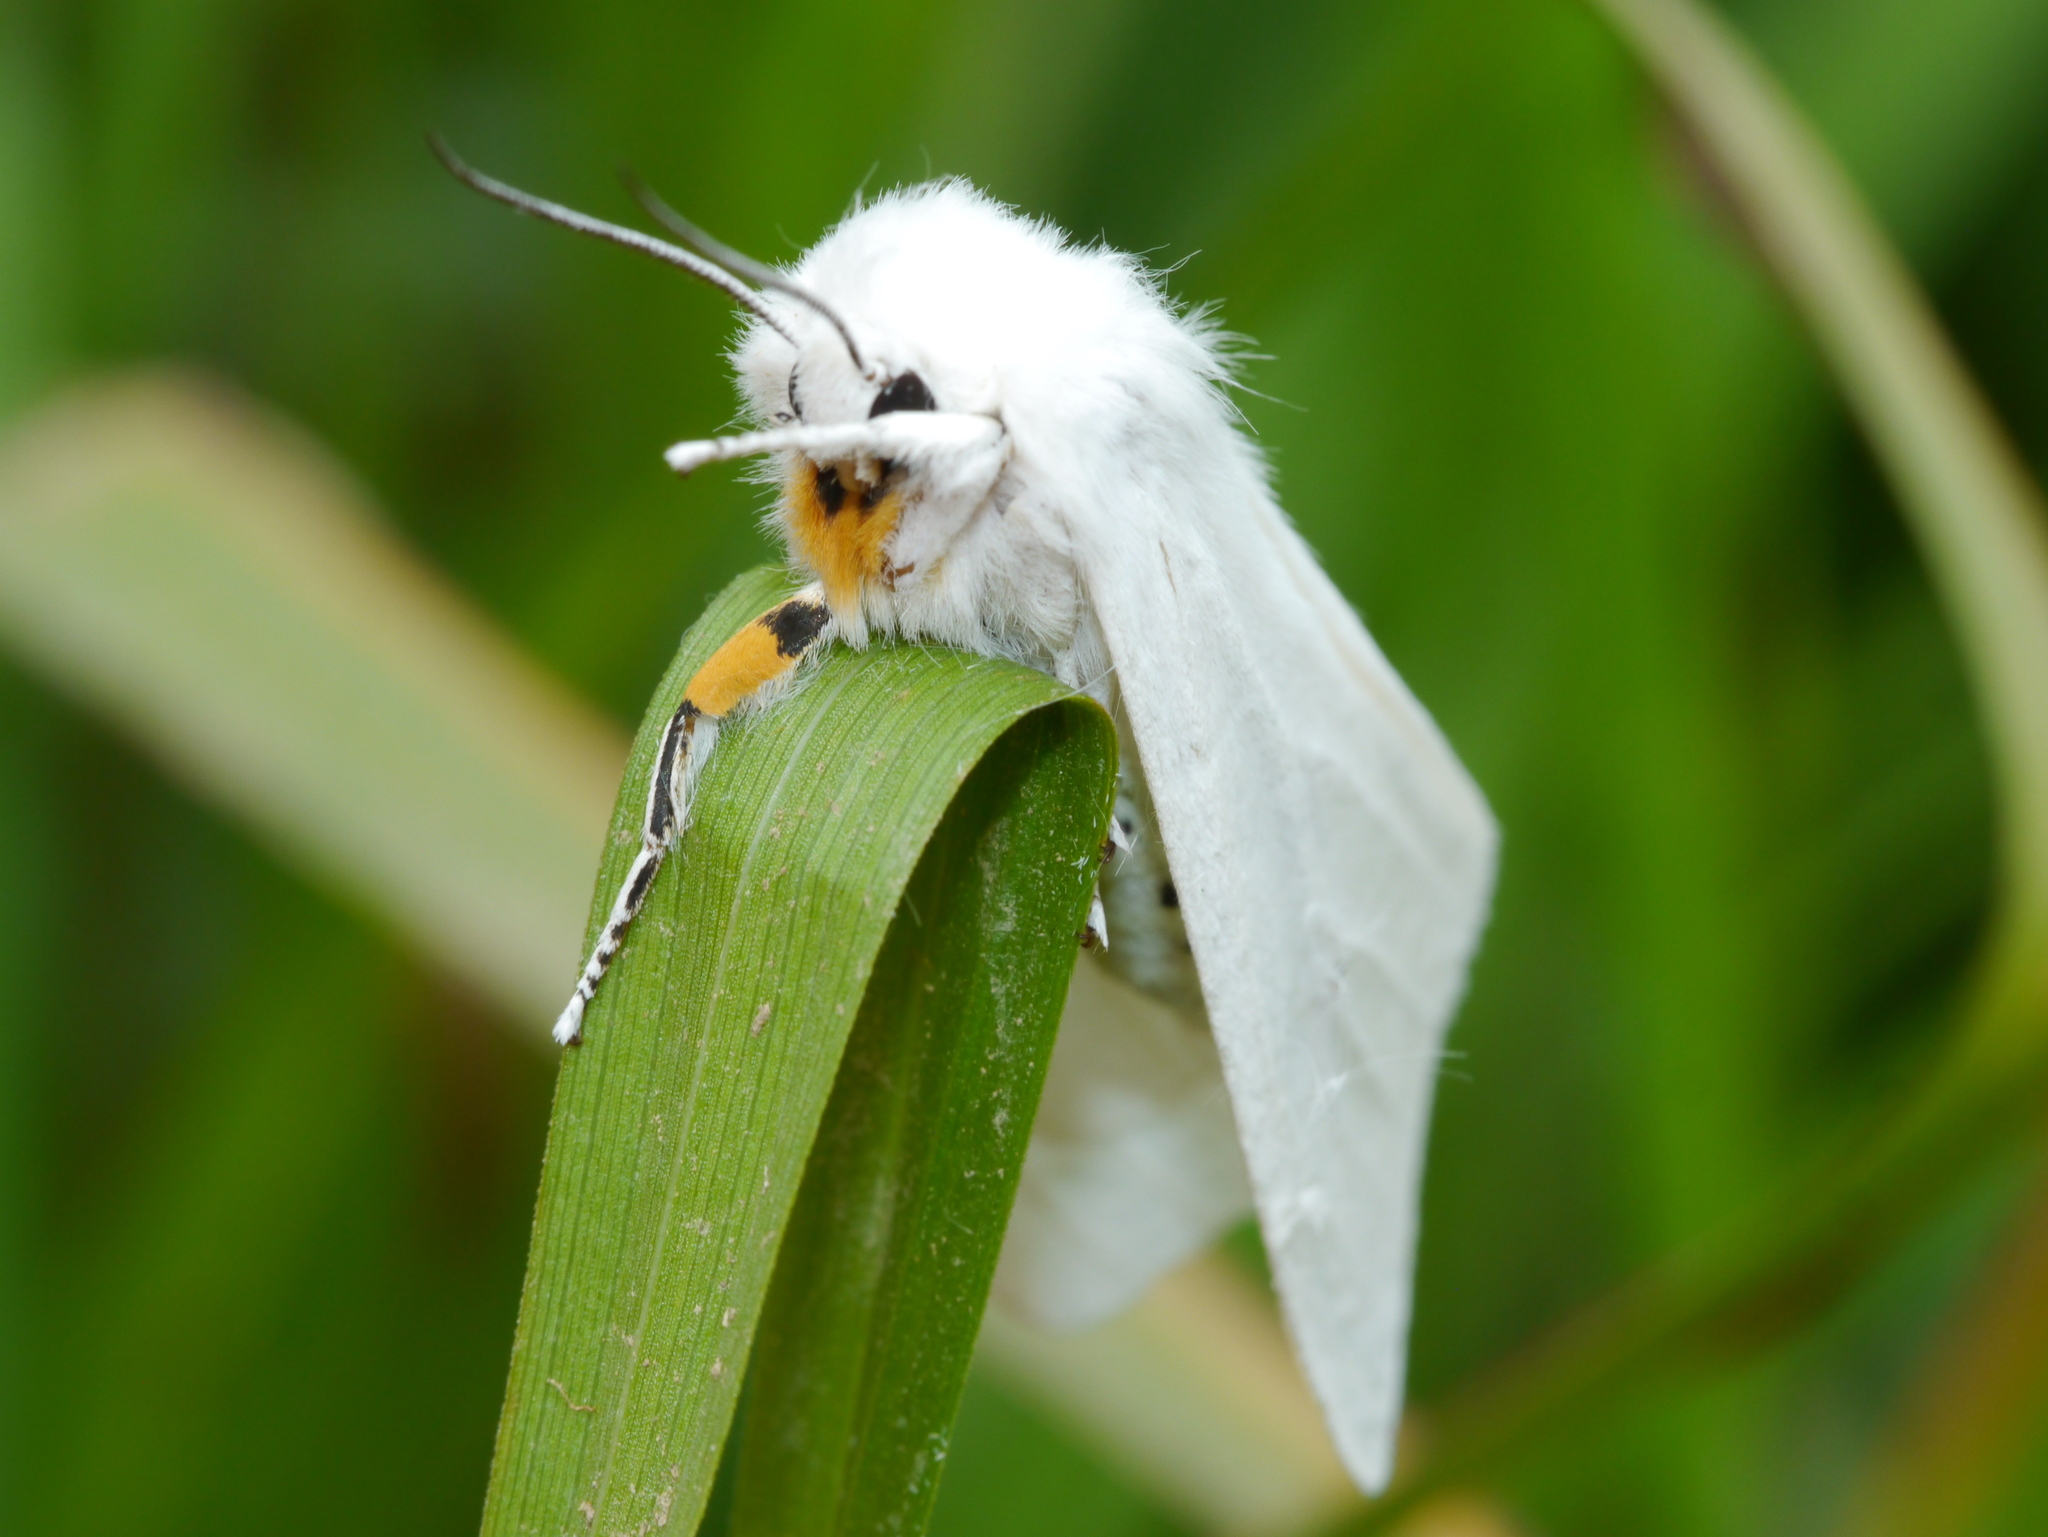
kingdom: Animalia
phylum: Arthropoda
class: Insecta
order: Lepidoptera
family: Erebidae
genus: Spilosoma
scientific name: Spilosoma virginica
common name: Virginia tiger moth
